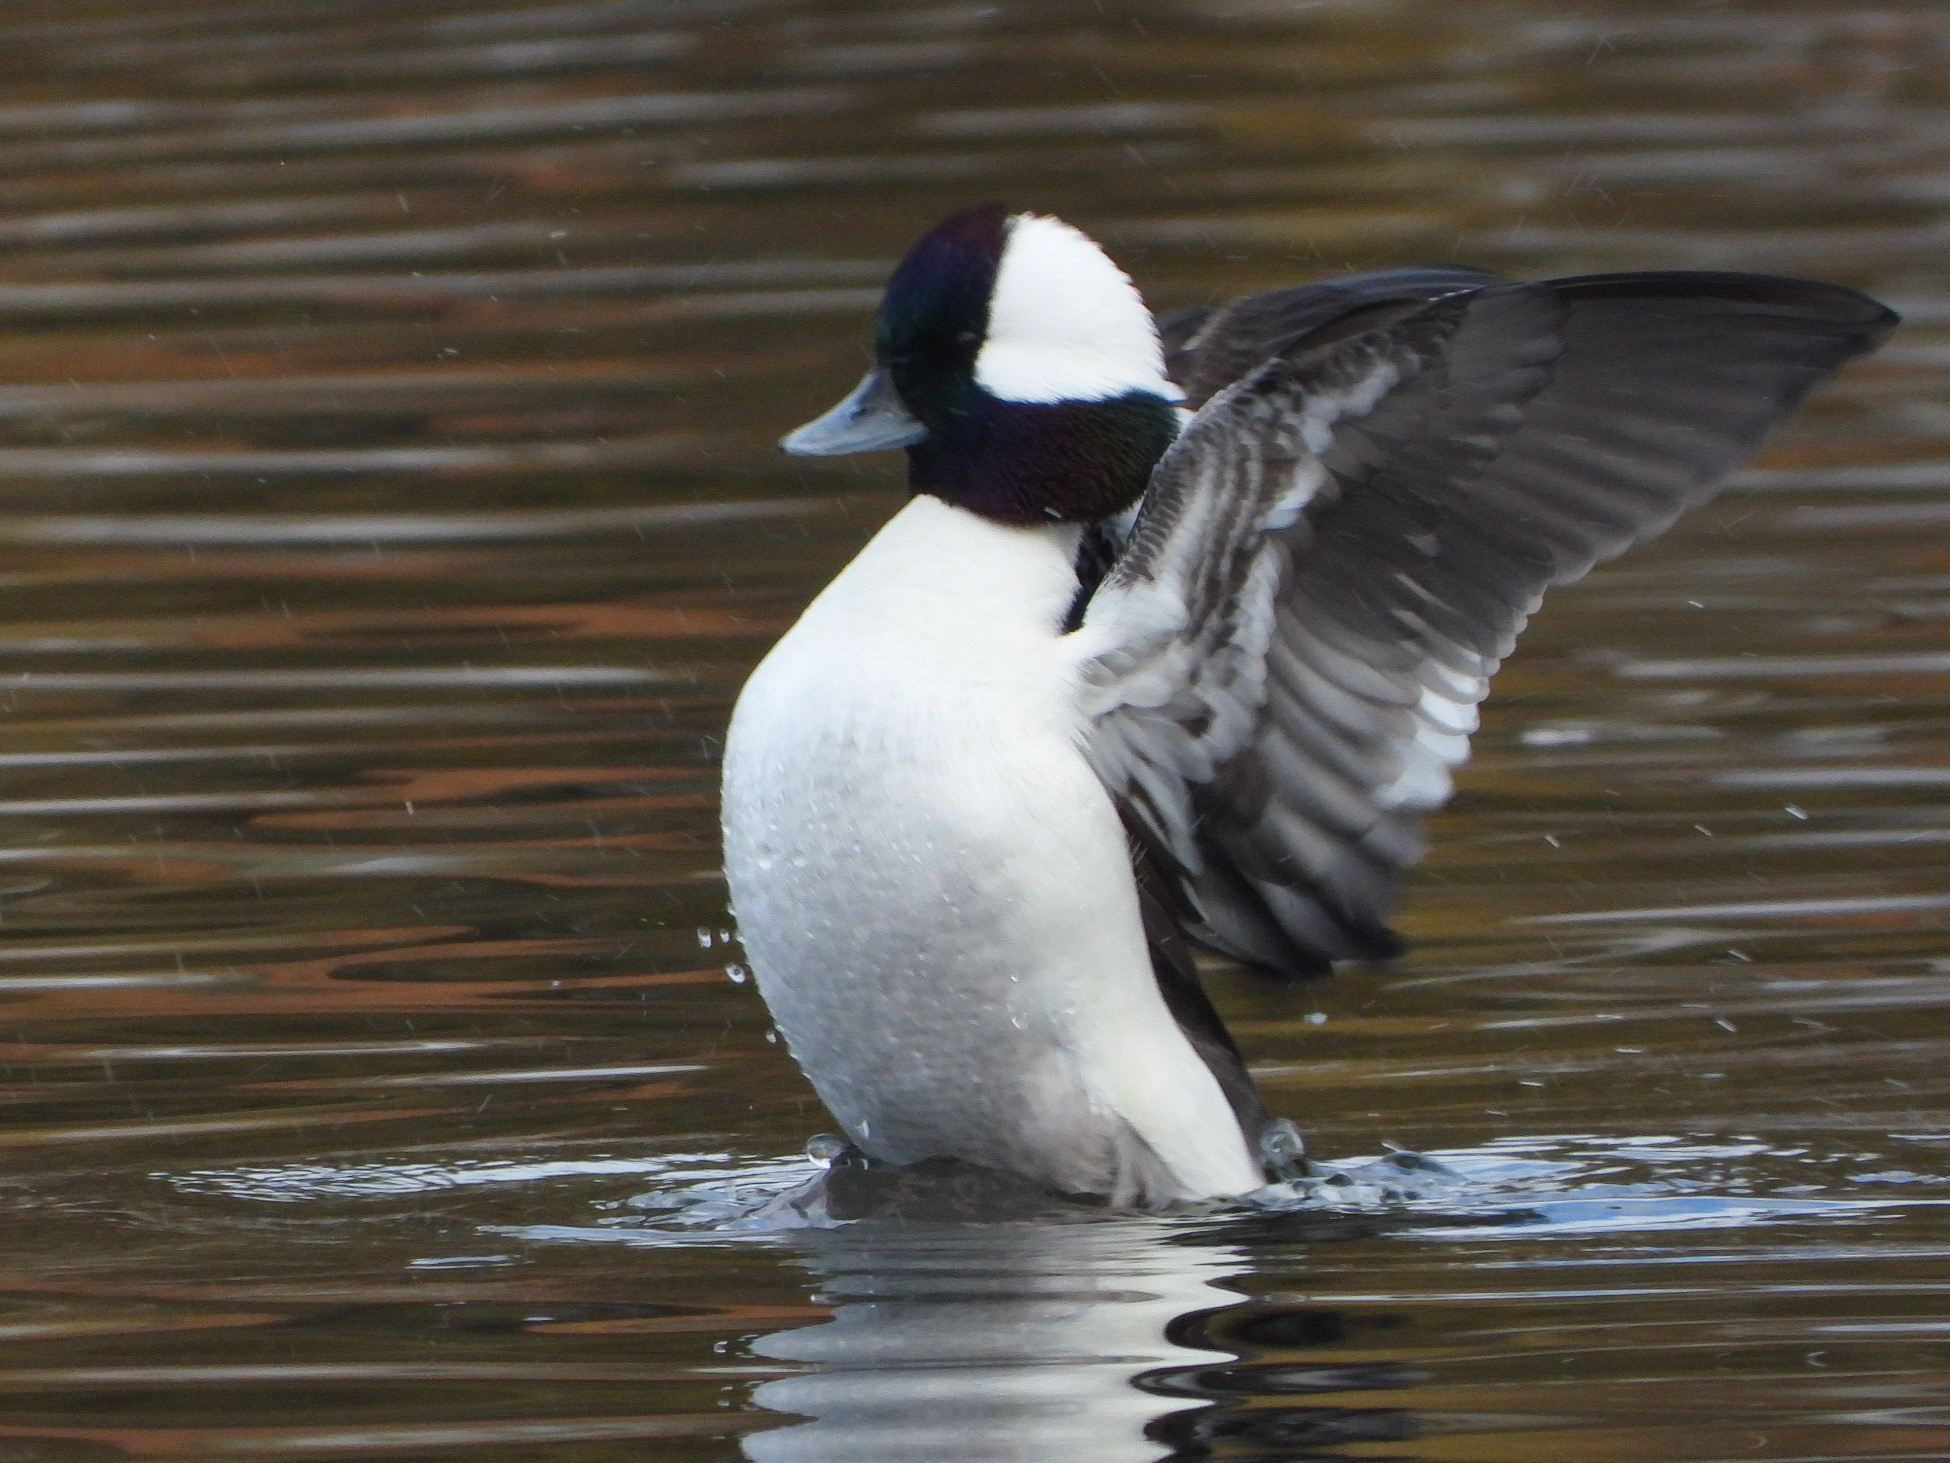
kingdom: Animalia
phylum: Chordata
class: Aves
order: Anseriformes
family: Anatidae
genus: Bucephala
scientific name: Bucephala albeola
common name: Bufflehead
